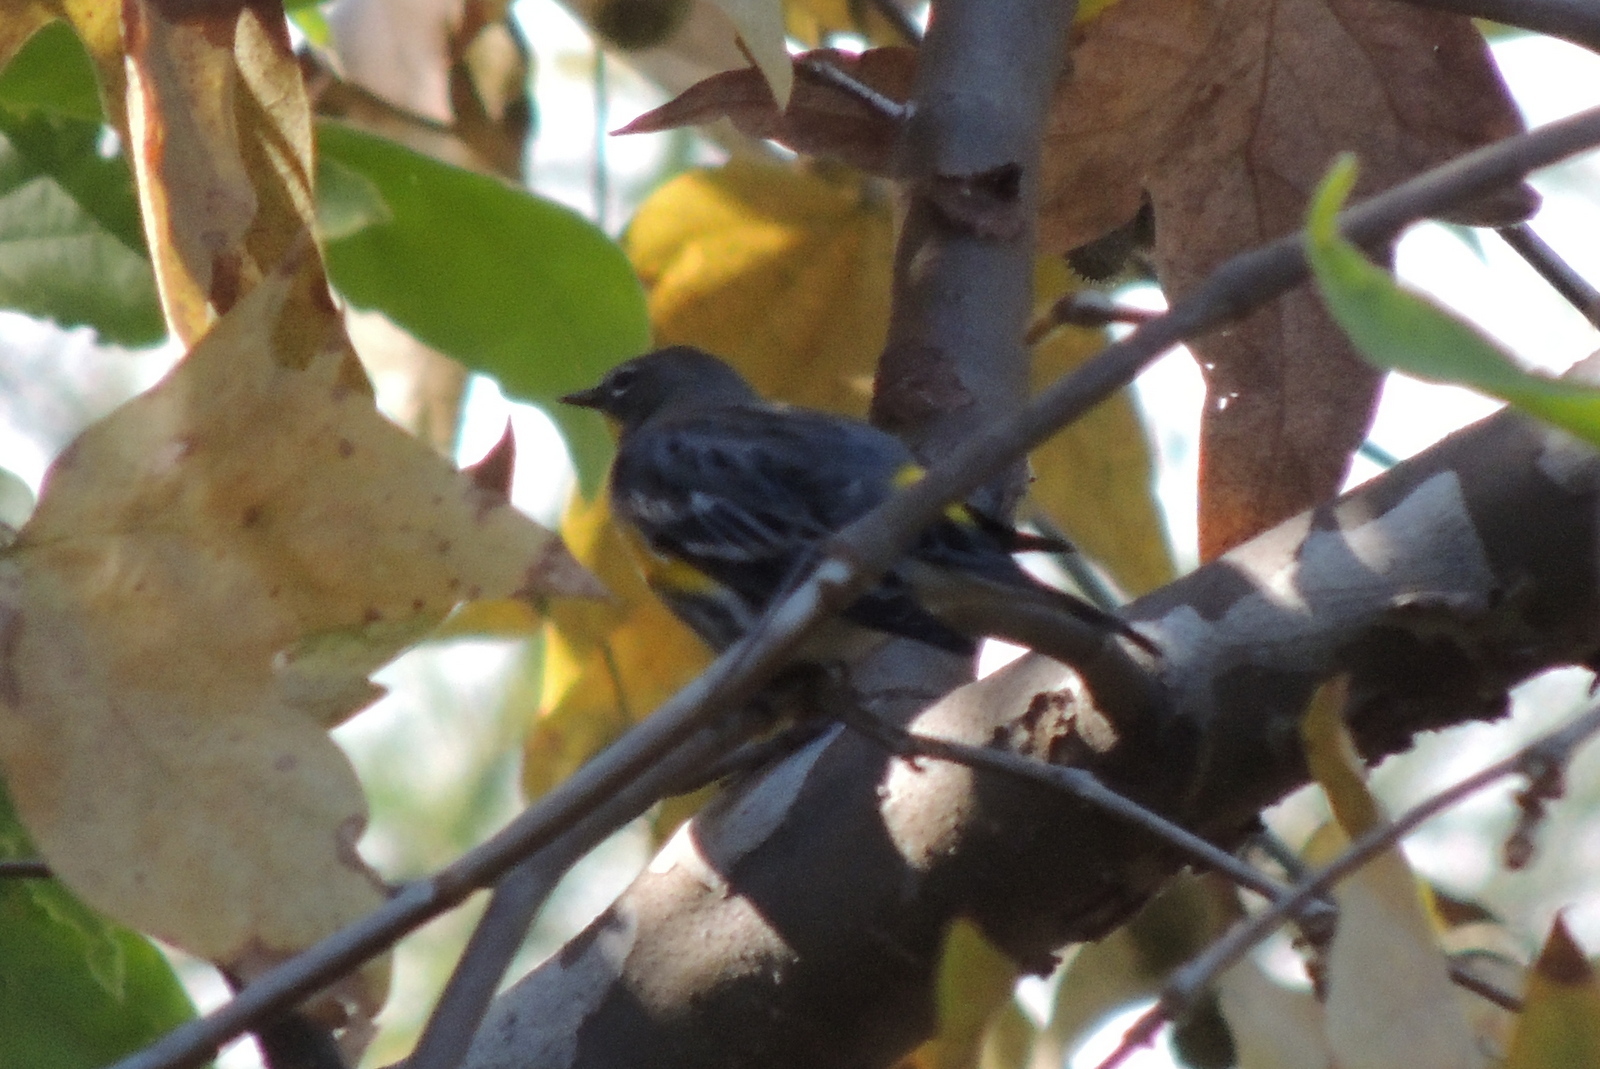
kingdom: Animalia
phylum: Chordata
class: Aves
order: Passeriformes
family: Parulidae
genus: Setophaga
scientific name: Setophaga coronata
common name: Myrtle warbler
